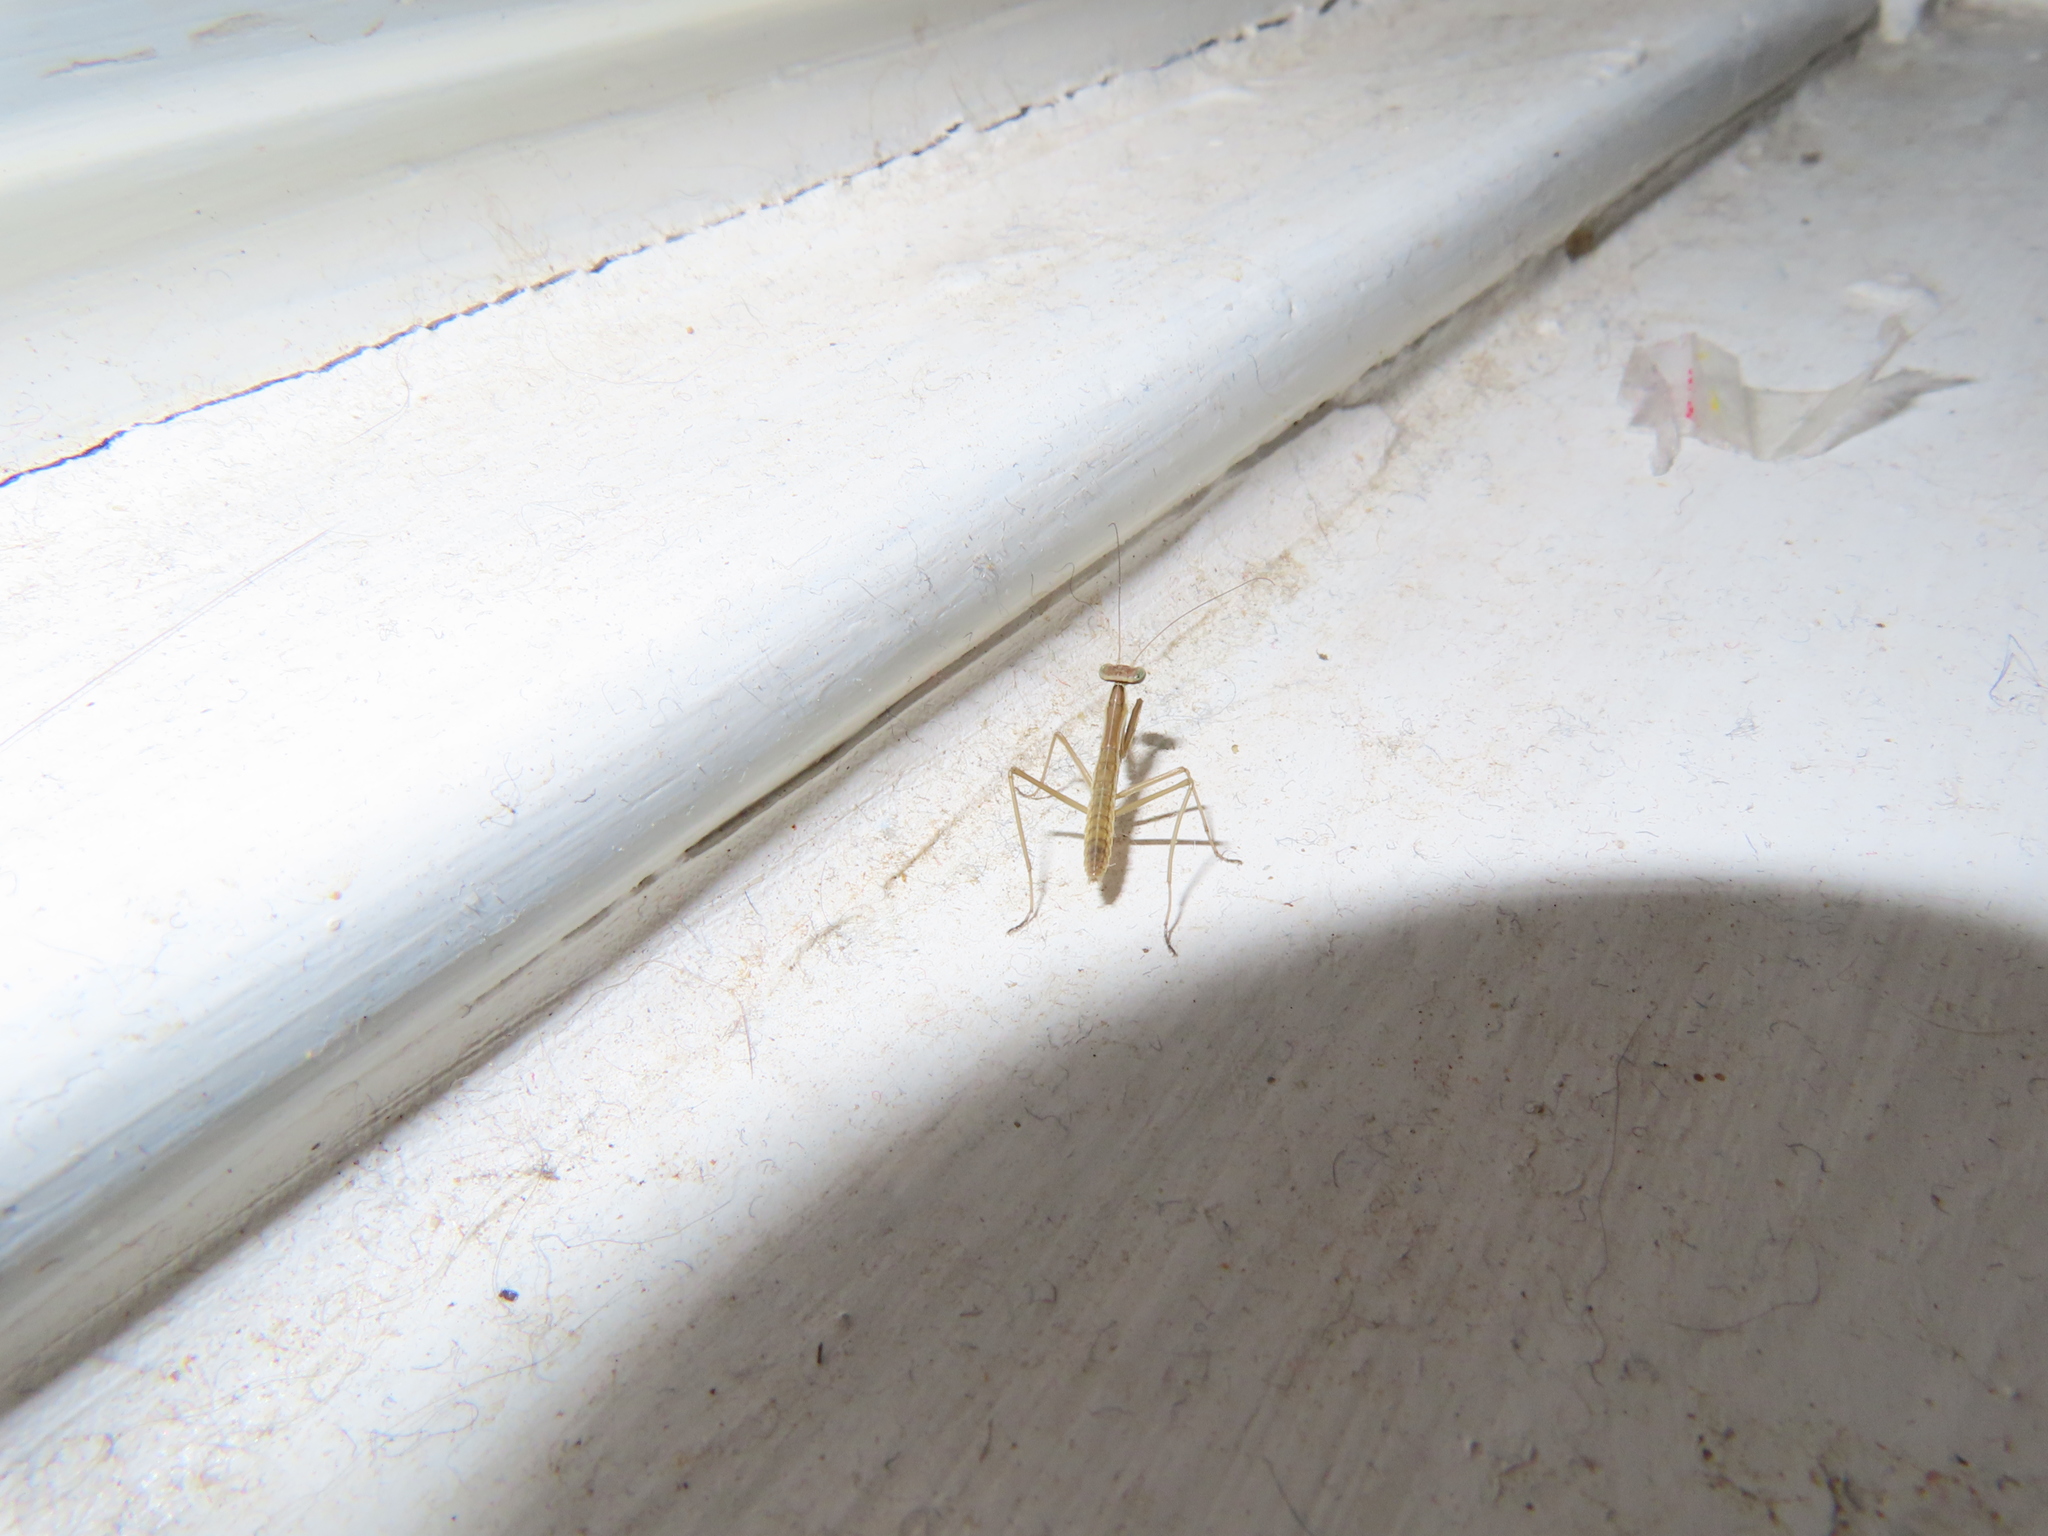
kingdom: Animalia
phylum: Arthropoda
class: Insecta
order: Mantodea
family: Mantidae
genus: Tenodera
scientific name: Tenodera sinensis
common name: Chinese mantis
